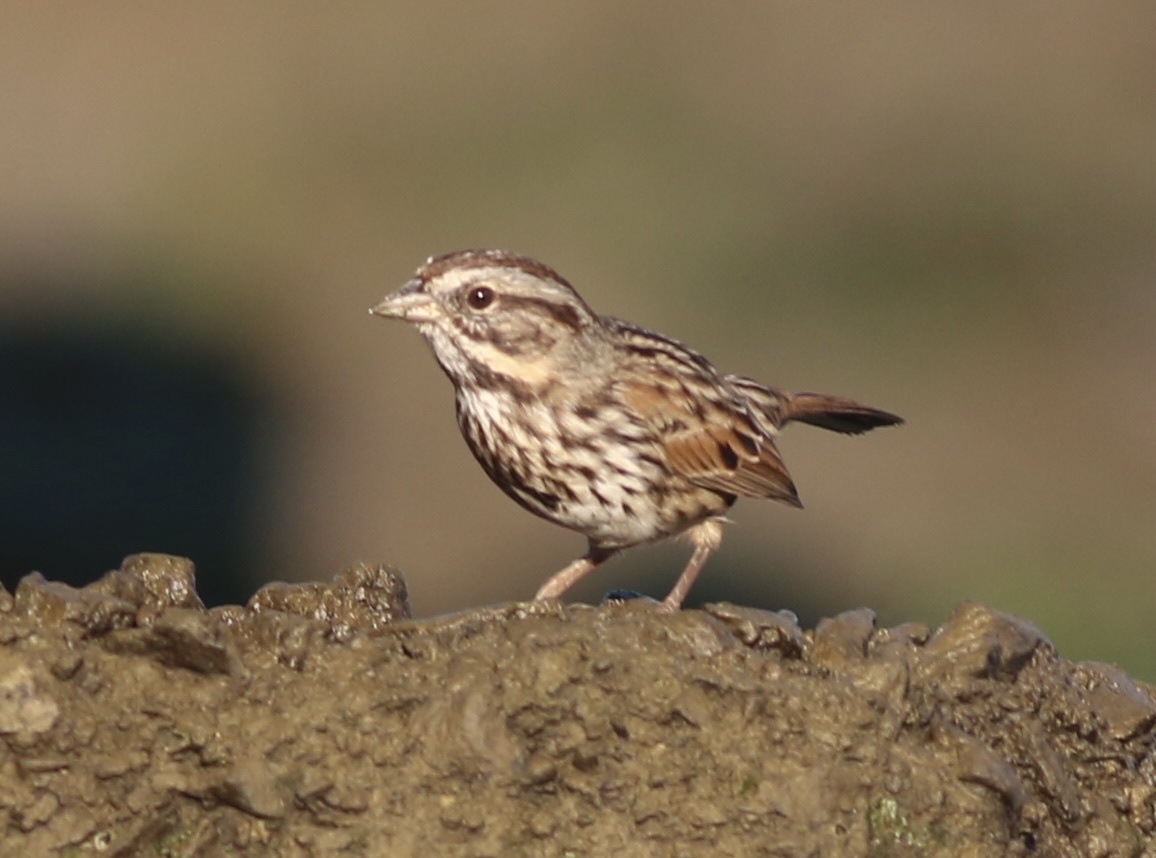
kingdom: Animalia
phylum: Chordata
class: Aves
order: Passeriformes
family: Passerellidae
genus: Melospiza
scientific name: Melospiza melodia
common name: Song sparrow
